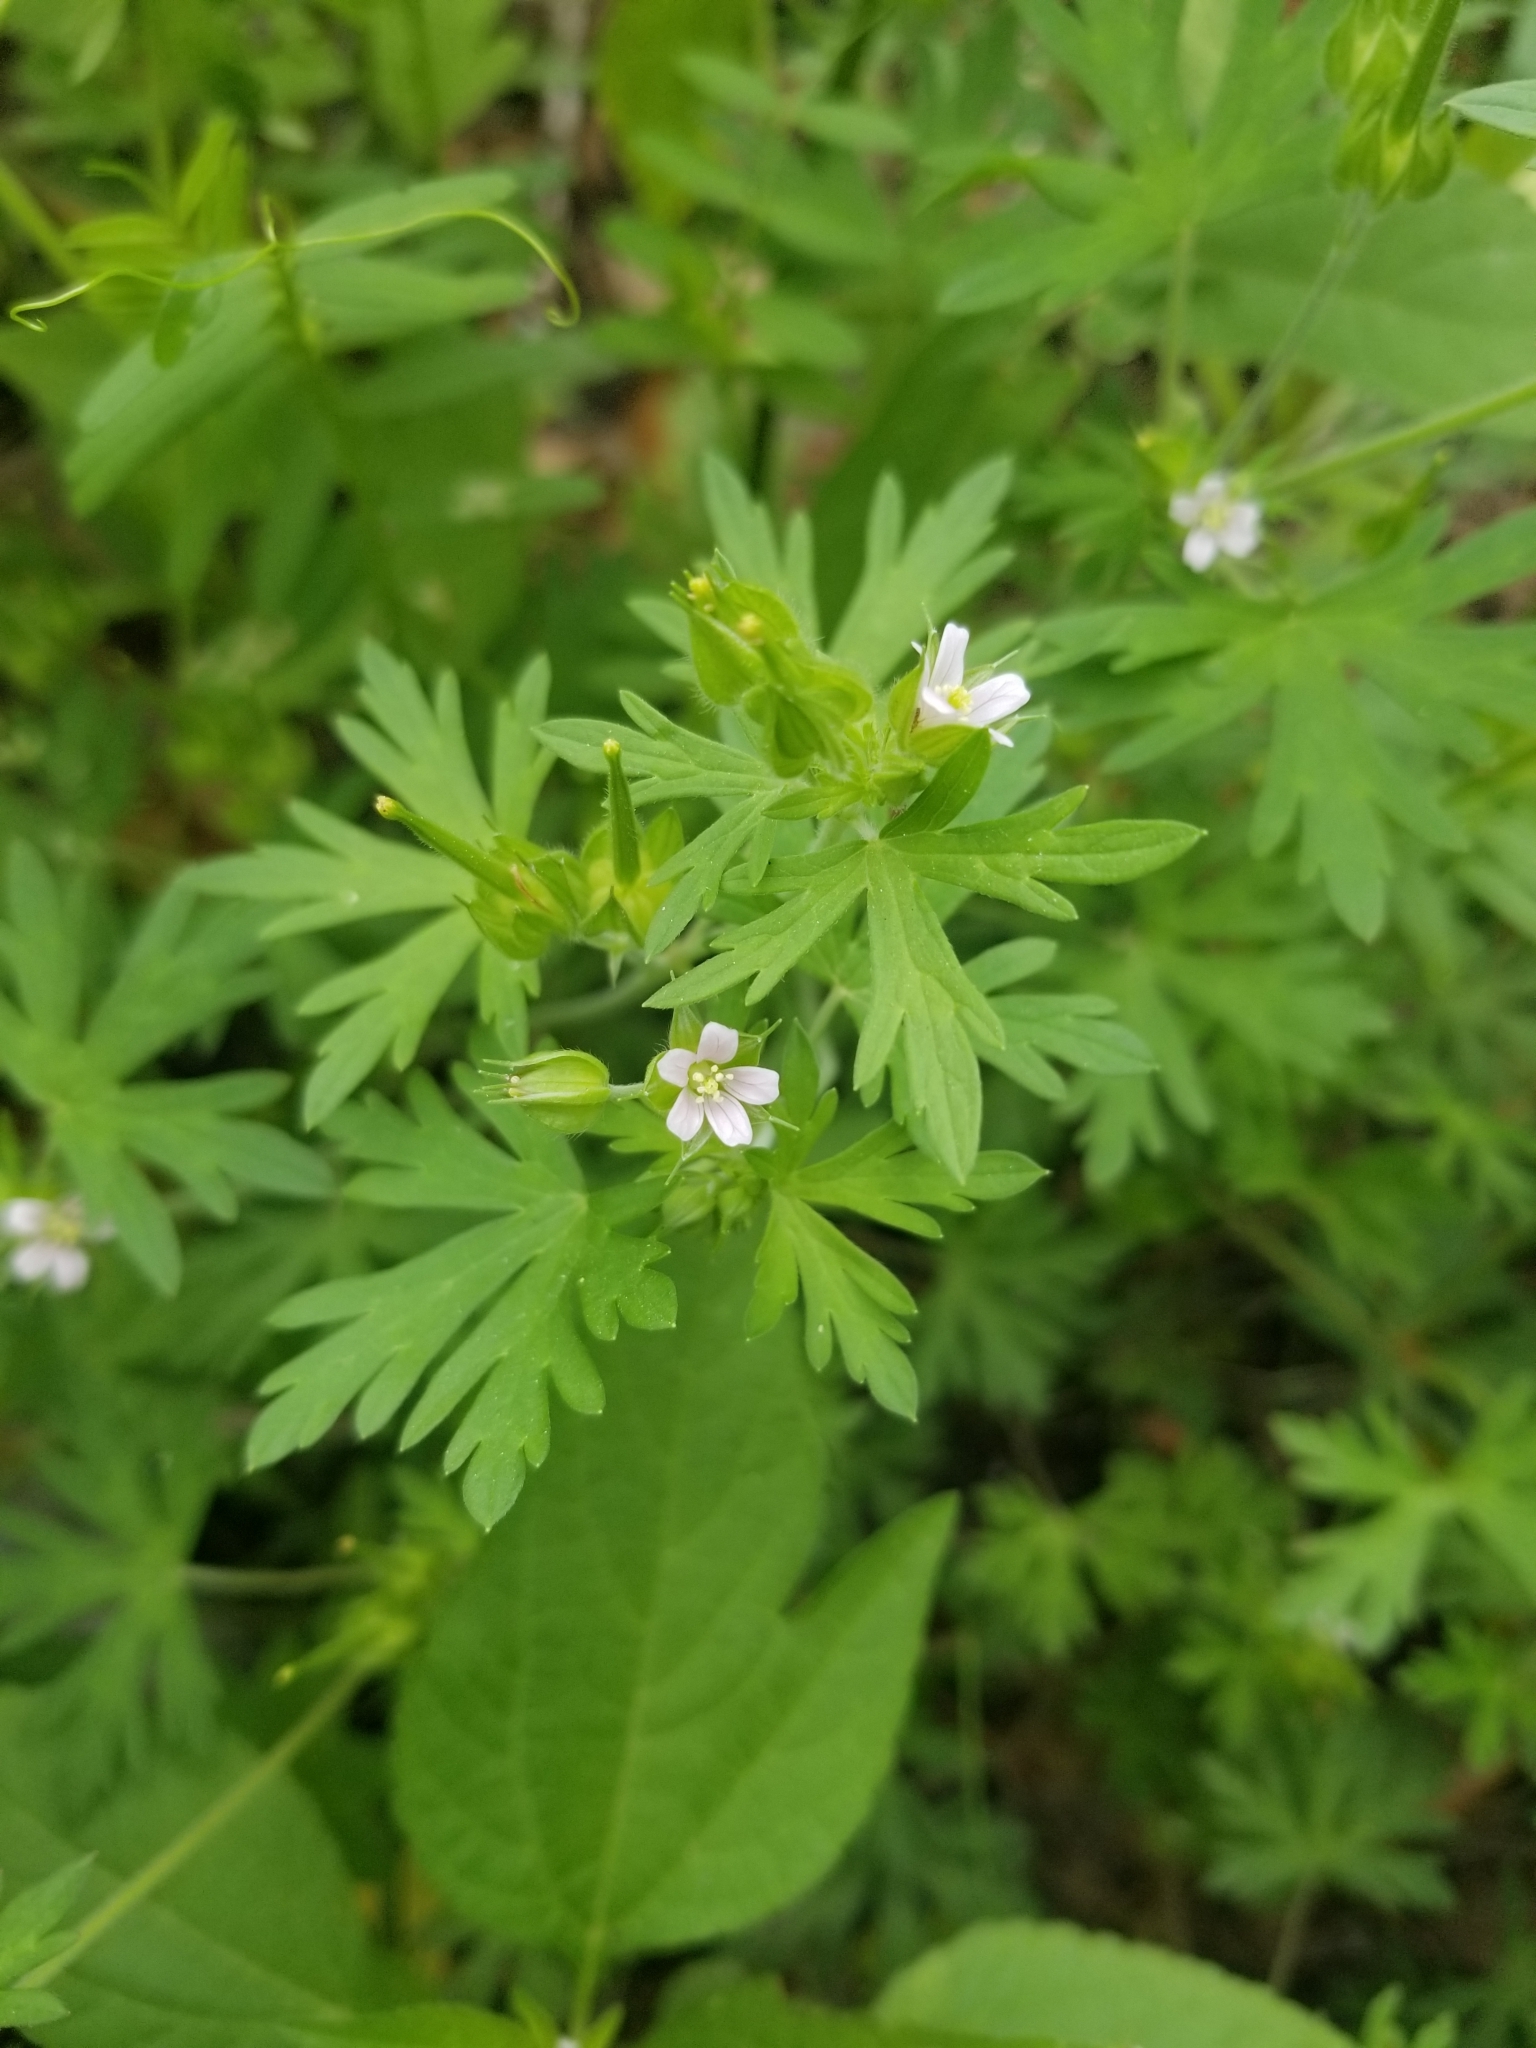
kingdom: Plantae
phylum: Tracheophyta
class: Magnoliopsida
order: Geraniales
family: Geraniaceae
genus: Geranium
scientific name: Geranium carolinianum
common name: Carolina crane's-bill
